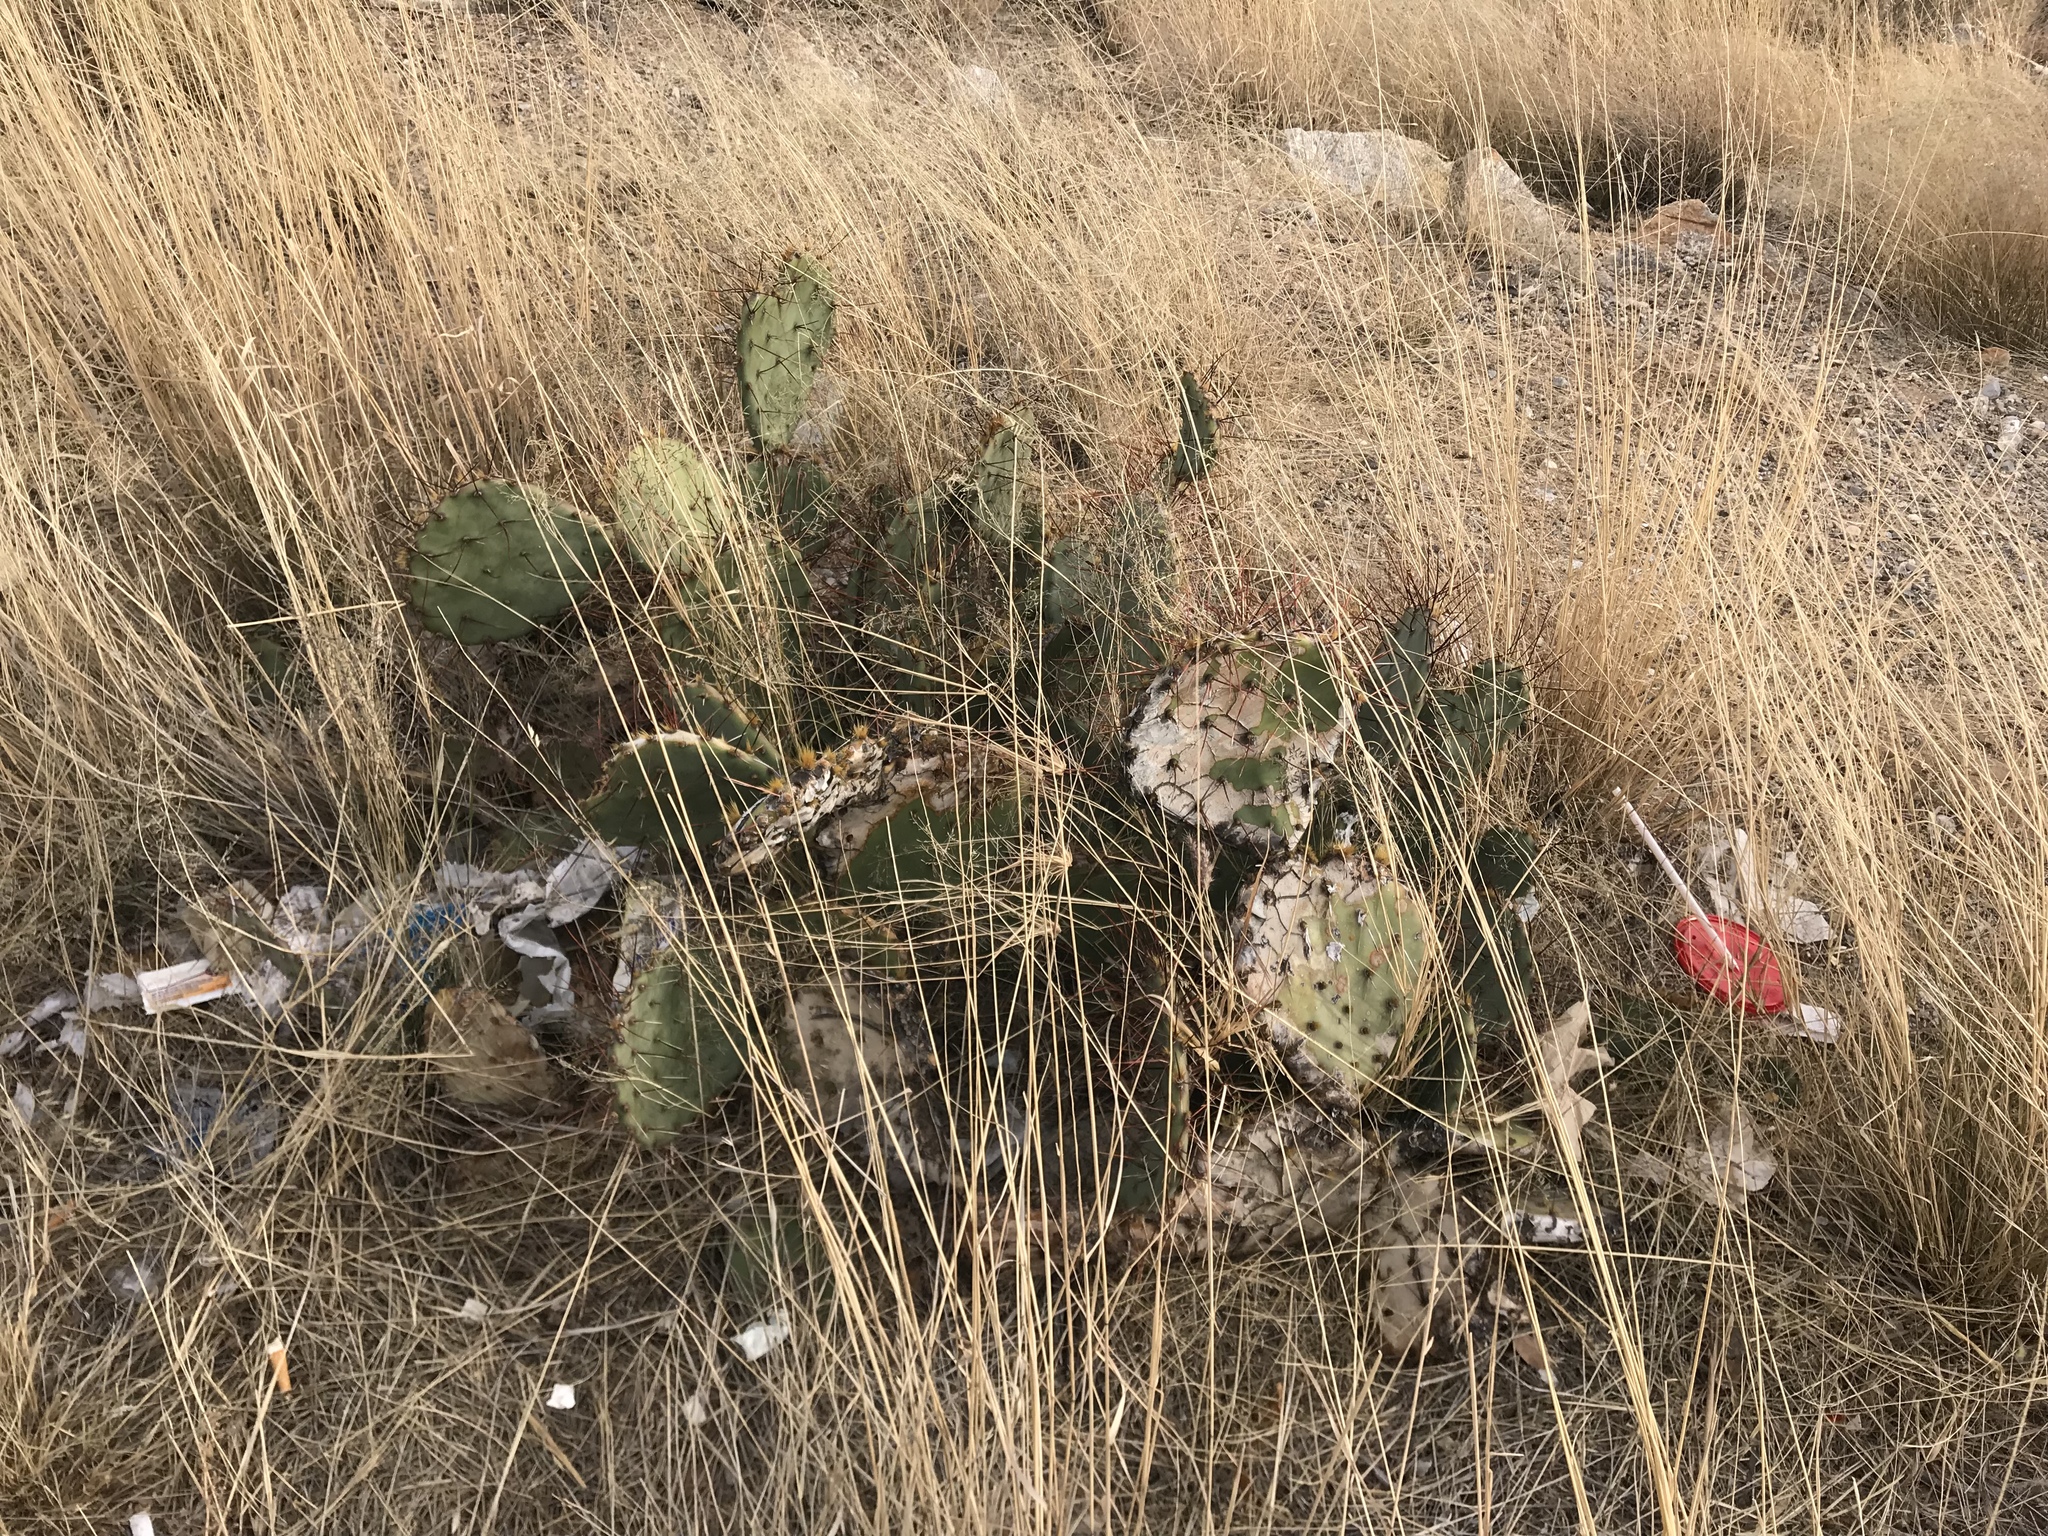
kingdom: Plantae
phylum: Tracheophyta
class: Magnoliopsida
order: Caryophyllales
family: Cactaceae
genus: Opuntia
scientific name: Opuntia macrocentra
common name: Purple prickly-pear
